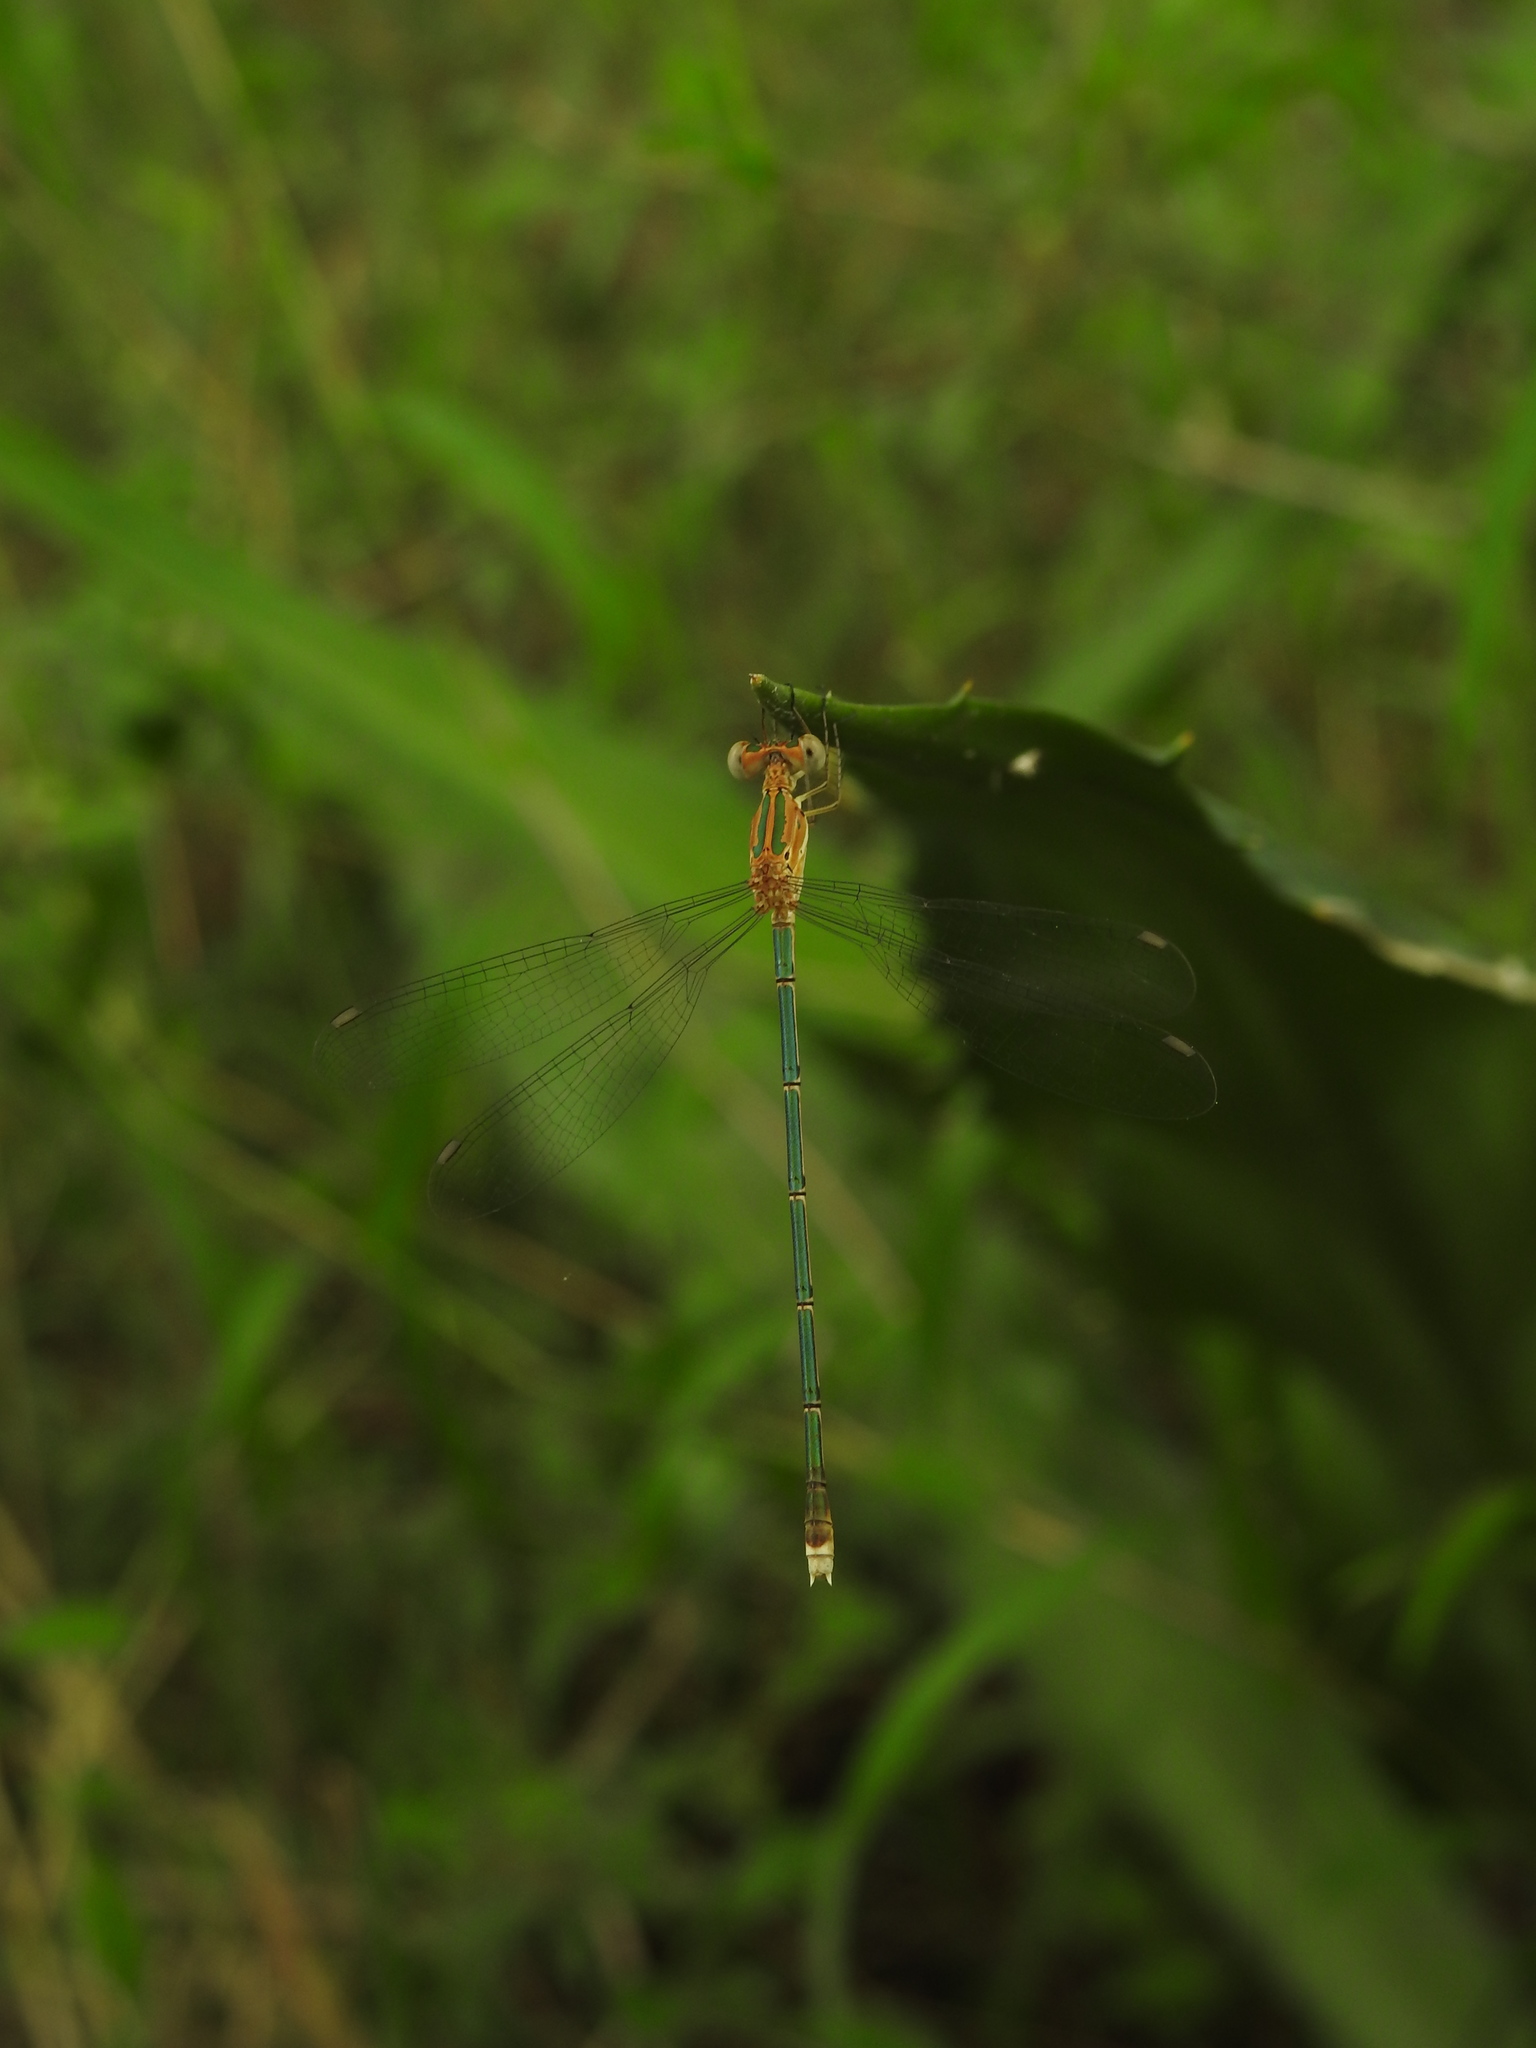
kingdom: Animalia
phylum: Arthropoda
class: Insecta
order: Odonata
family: Lestidae
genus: Lestes
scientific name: Lestes elatus
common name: Emerald spreadwing
